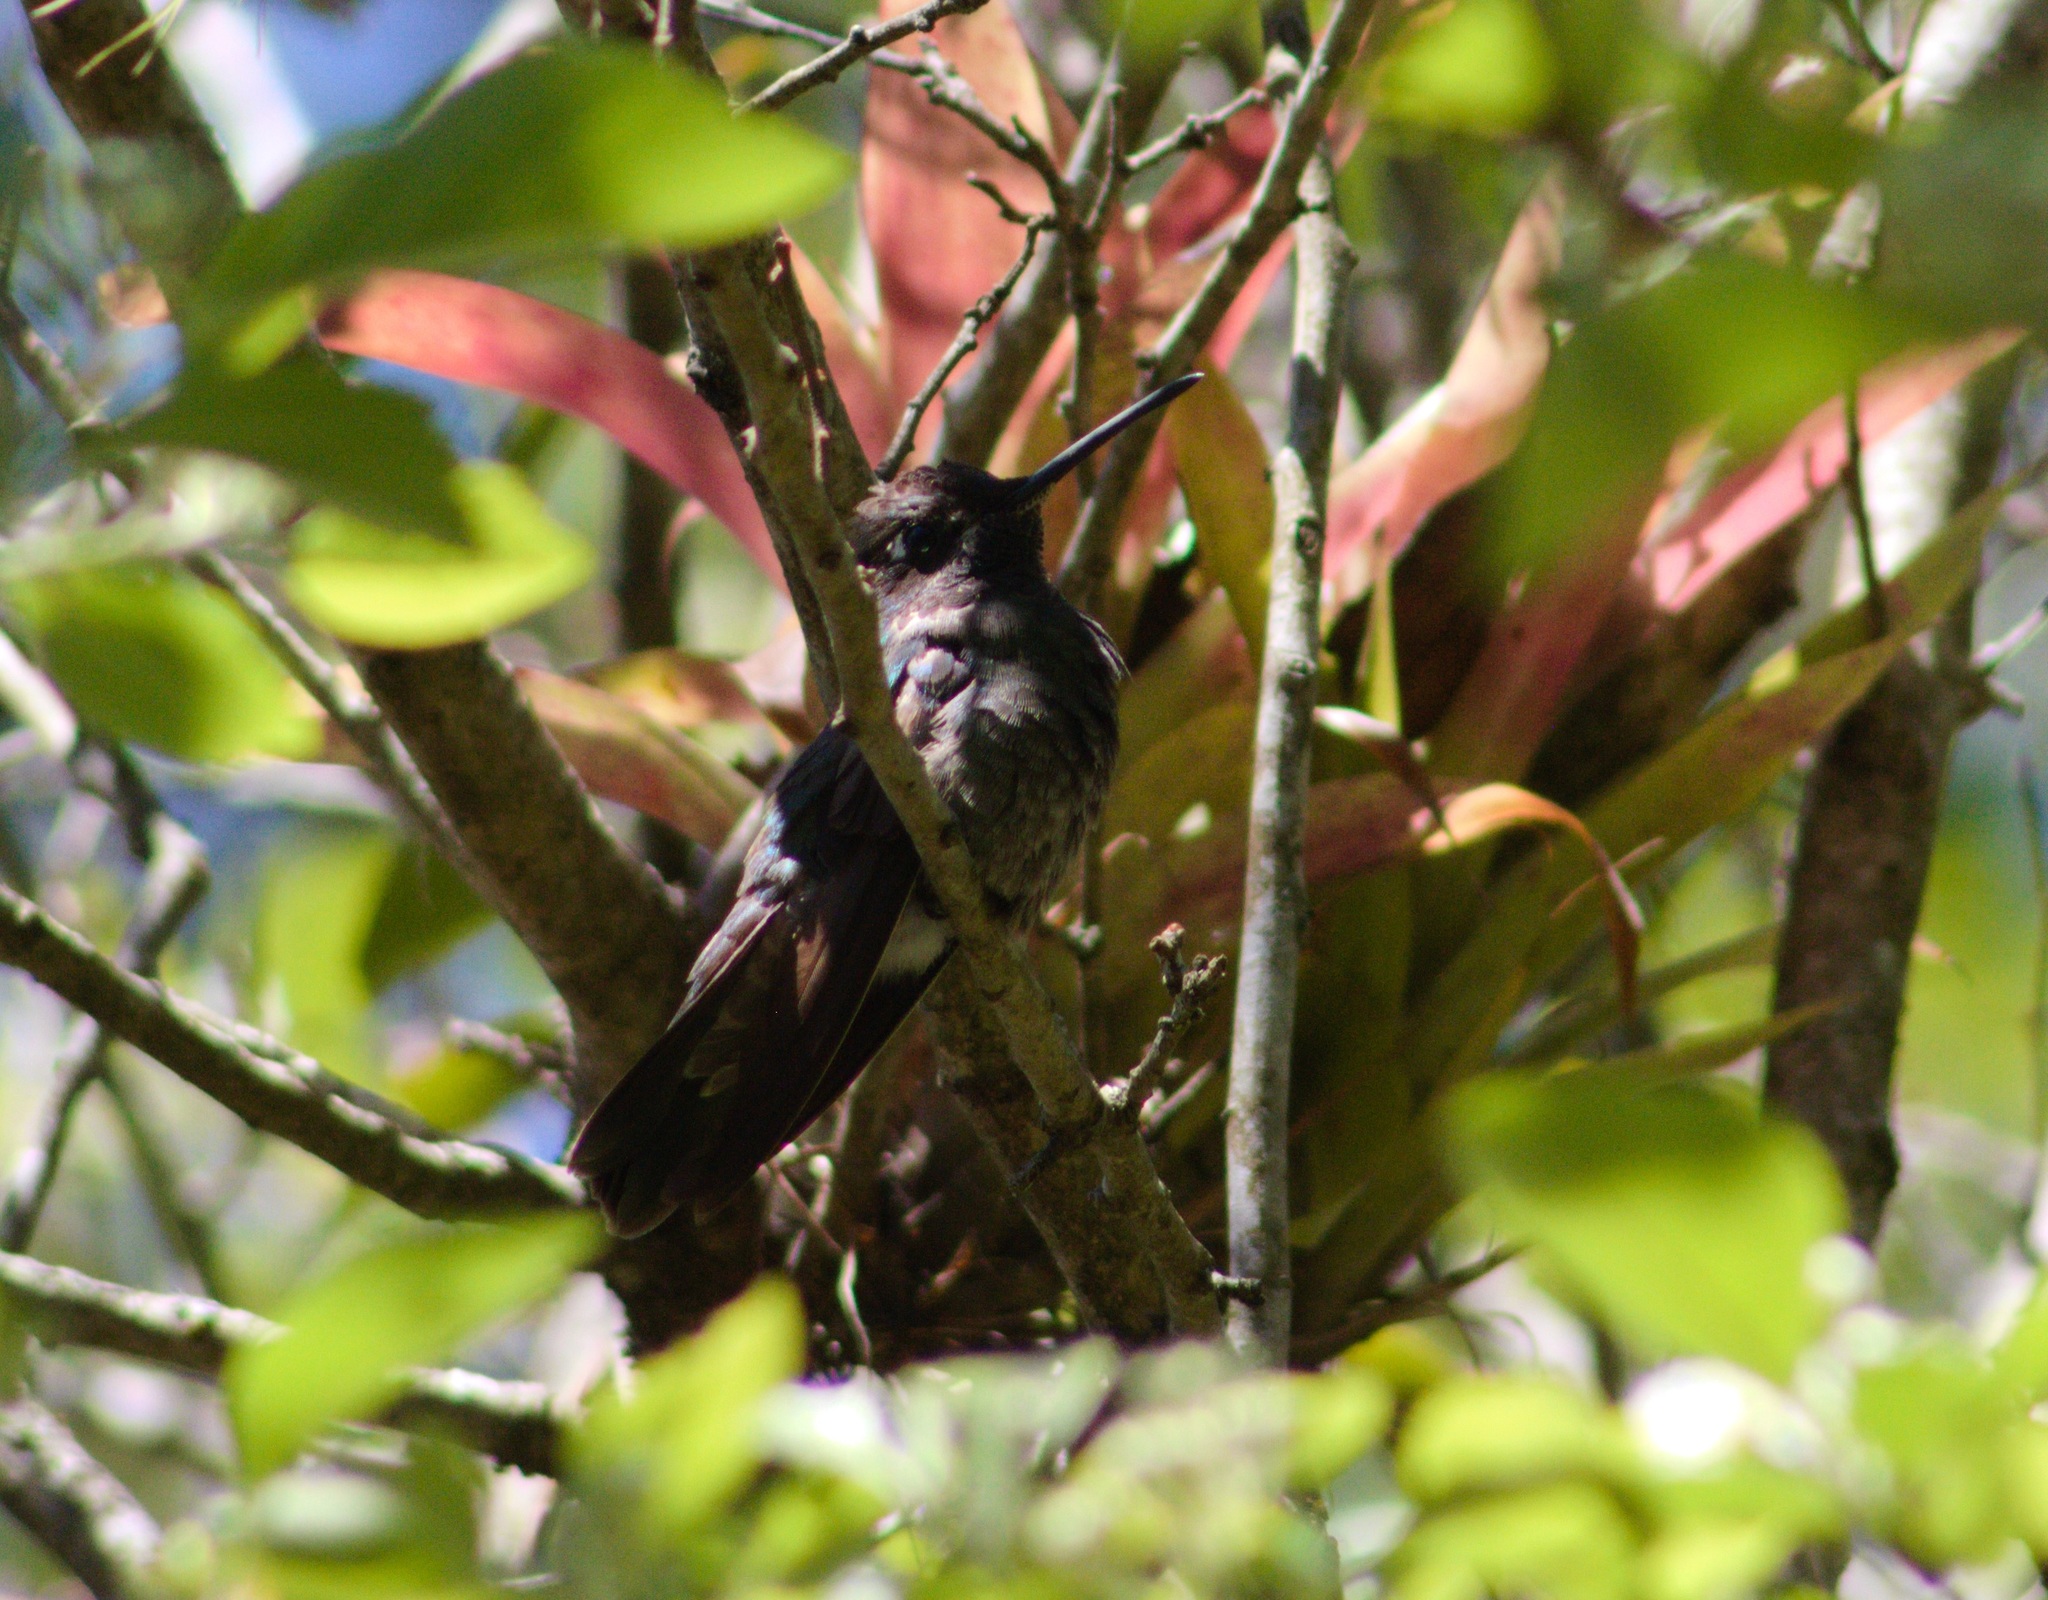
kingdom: Animalia
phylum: Chordata
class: Aves
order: Apodiformes
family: Trochilidae
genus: Eugenes
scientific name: Eugenes fulgens
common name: Magnificent hummingbird
